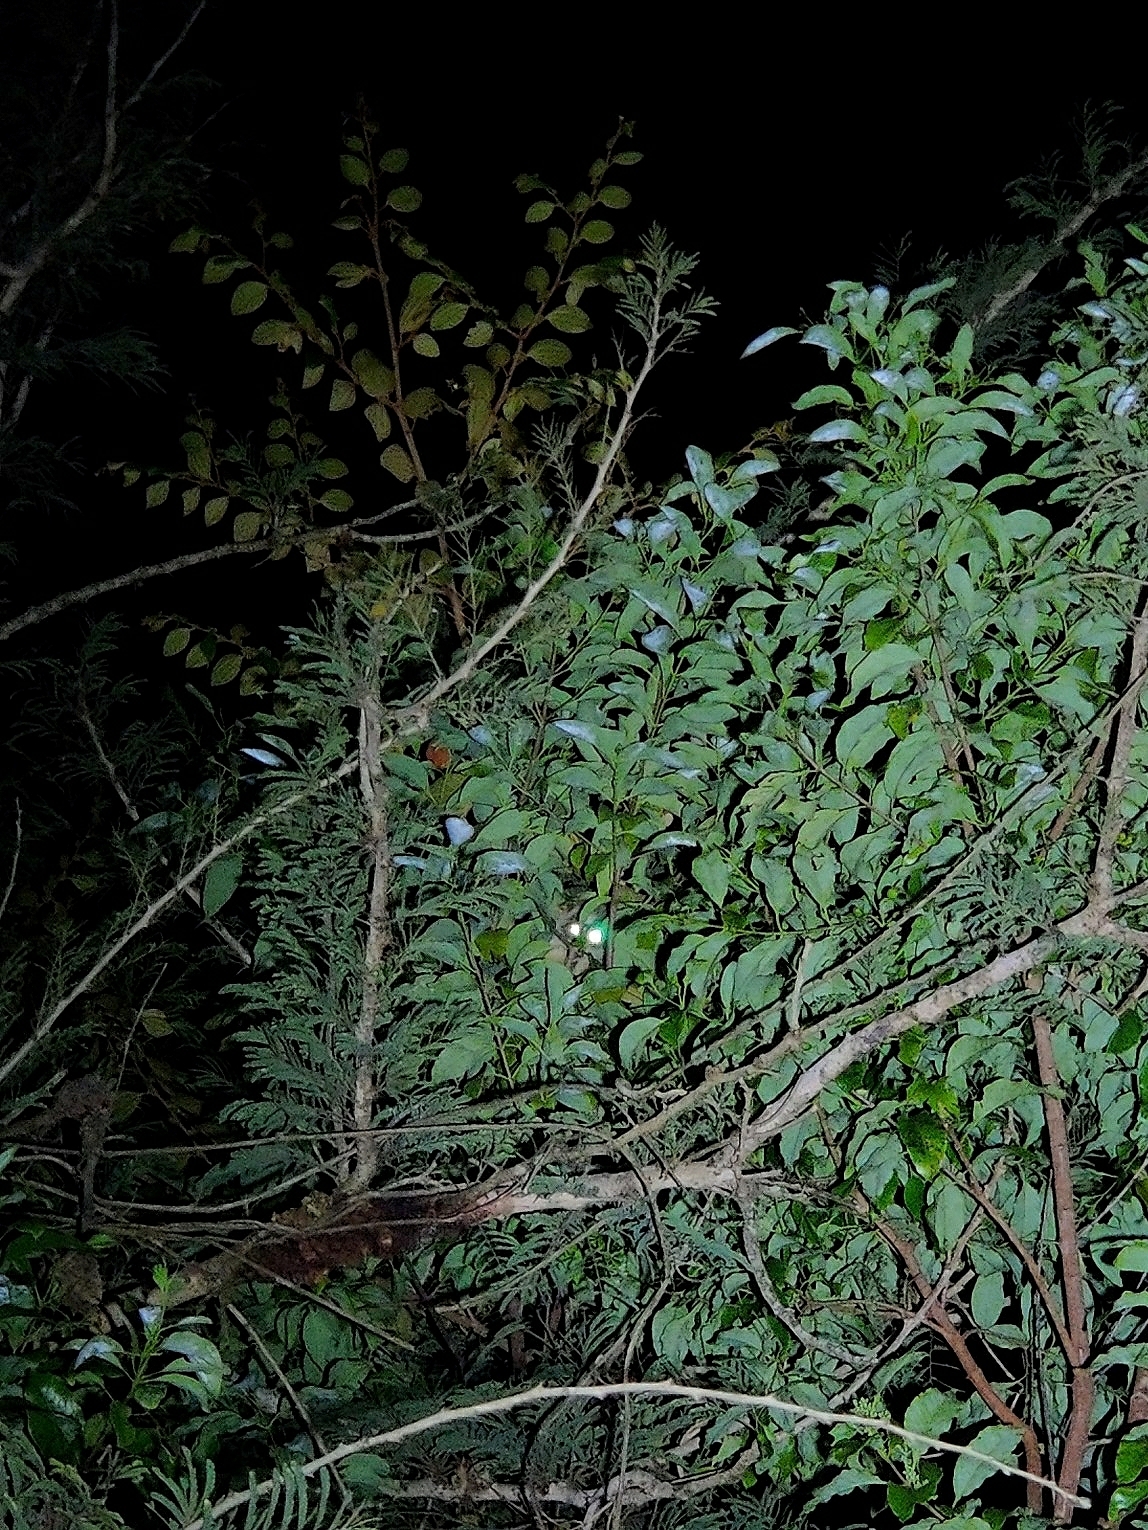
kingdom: Animalia
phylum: Chordata
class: Mammalia
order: Primates
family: Lorisidae
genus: Loris
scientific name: Loris lydekkerianus
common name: Gray slender loris
